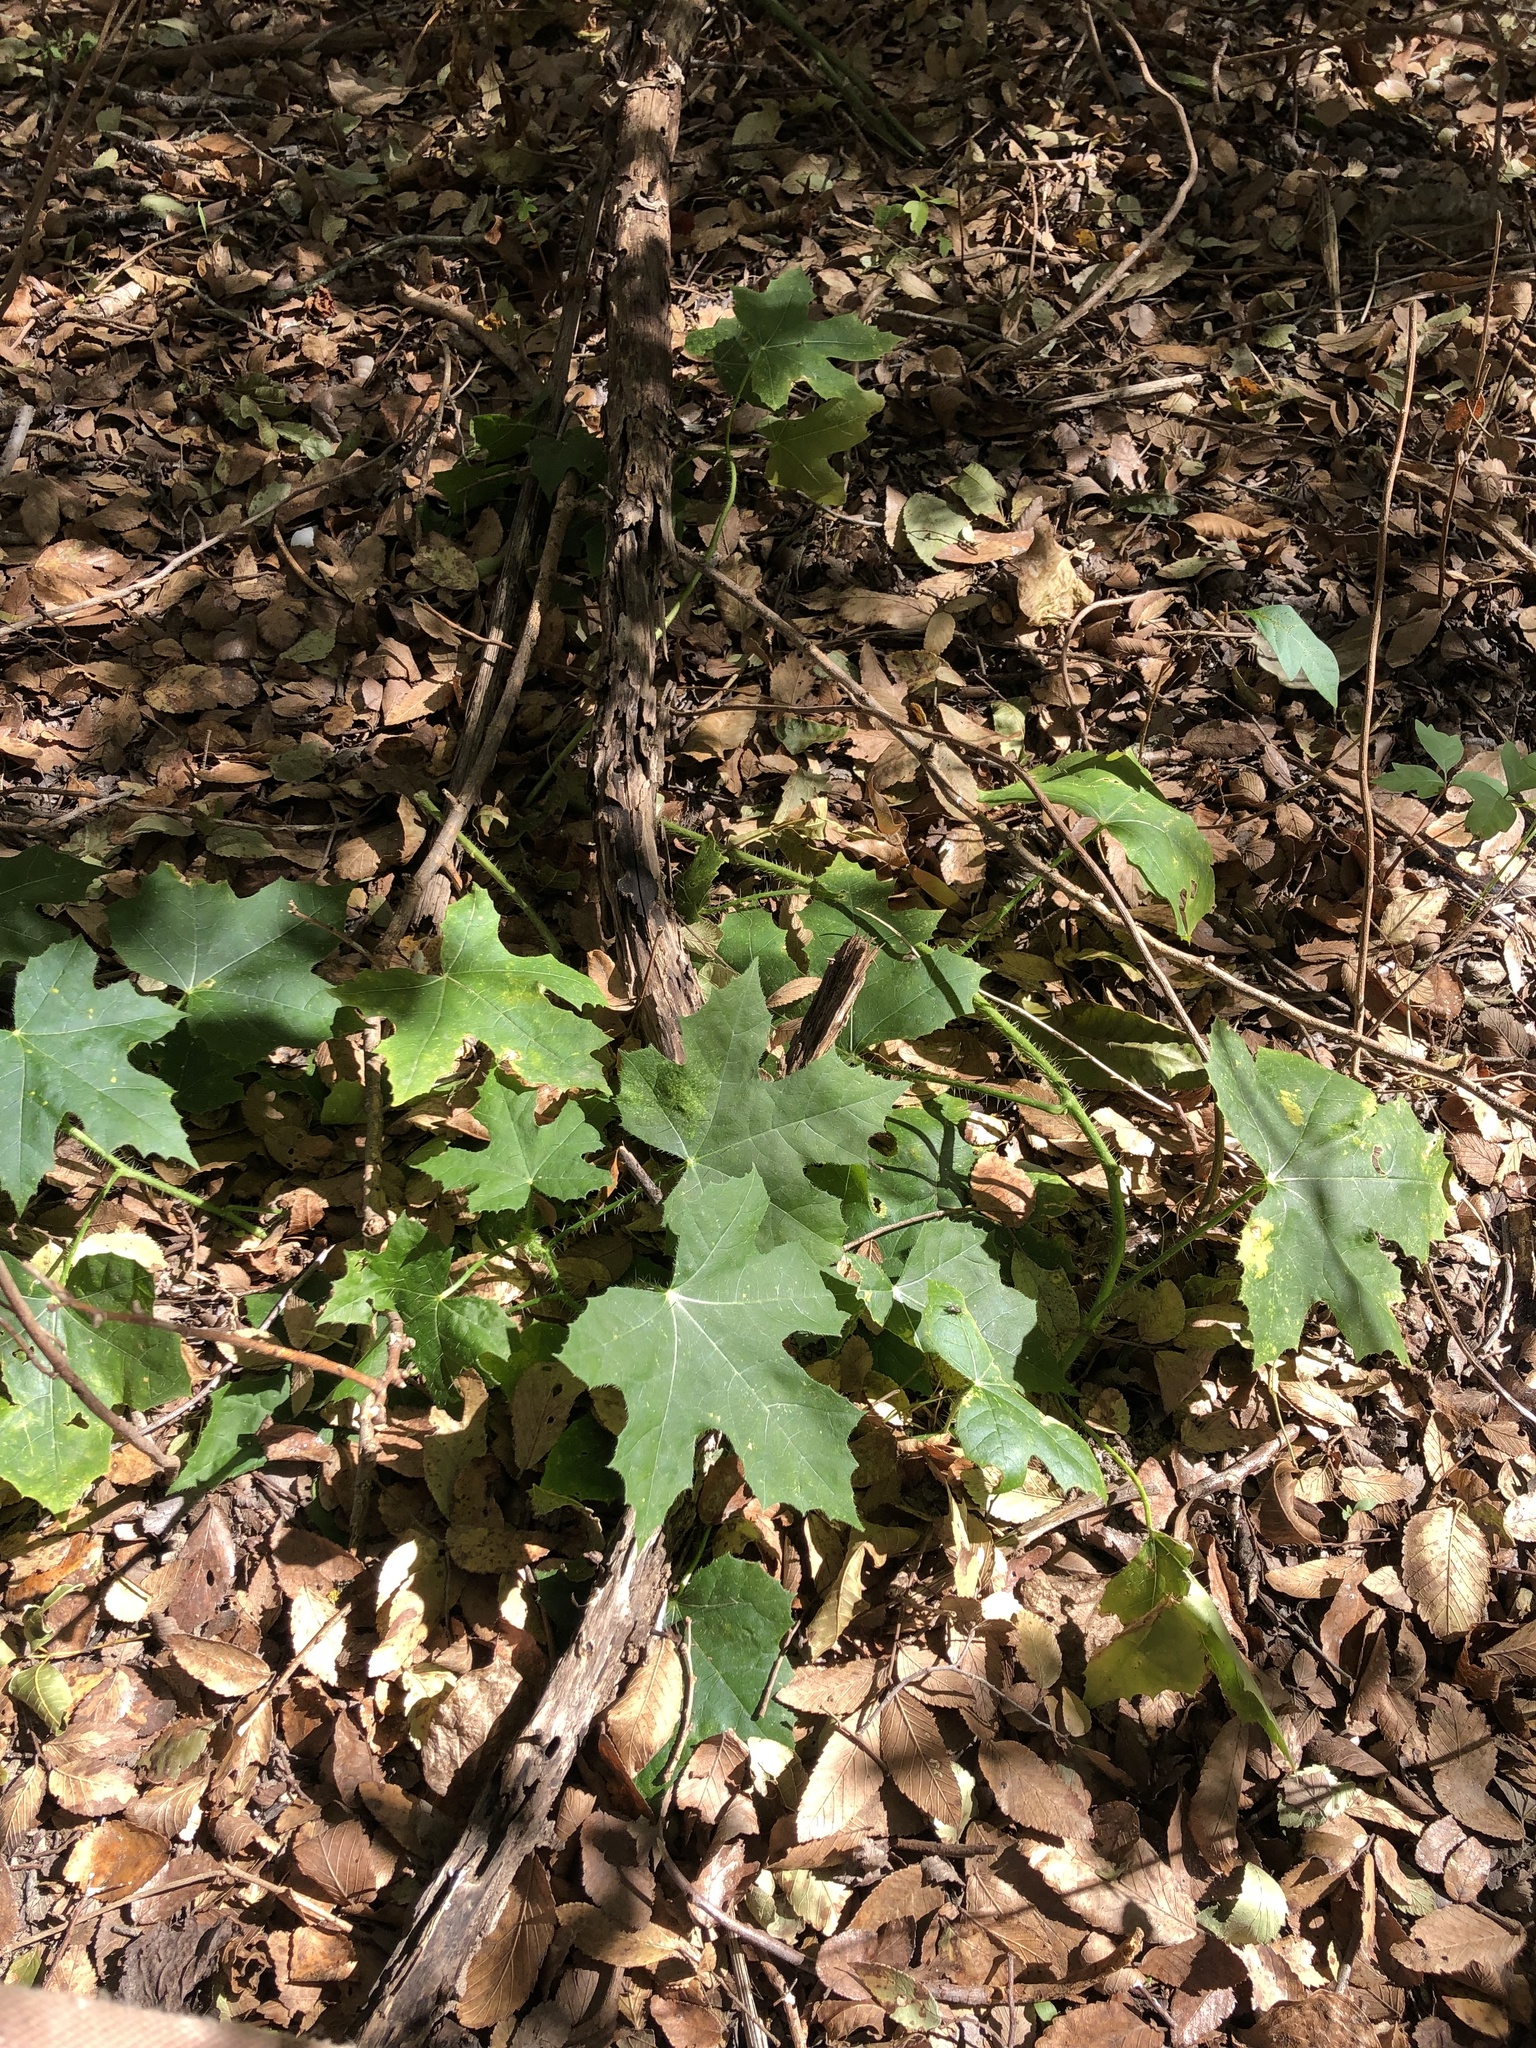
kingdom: Plantae
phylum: Tracheophyta
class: Magnoliopsida
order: Malpighiales
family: Euphorbiaceae
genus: Cnidoscolus
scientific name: Cnidoscolus texanus
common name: Texas bull-nettle
